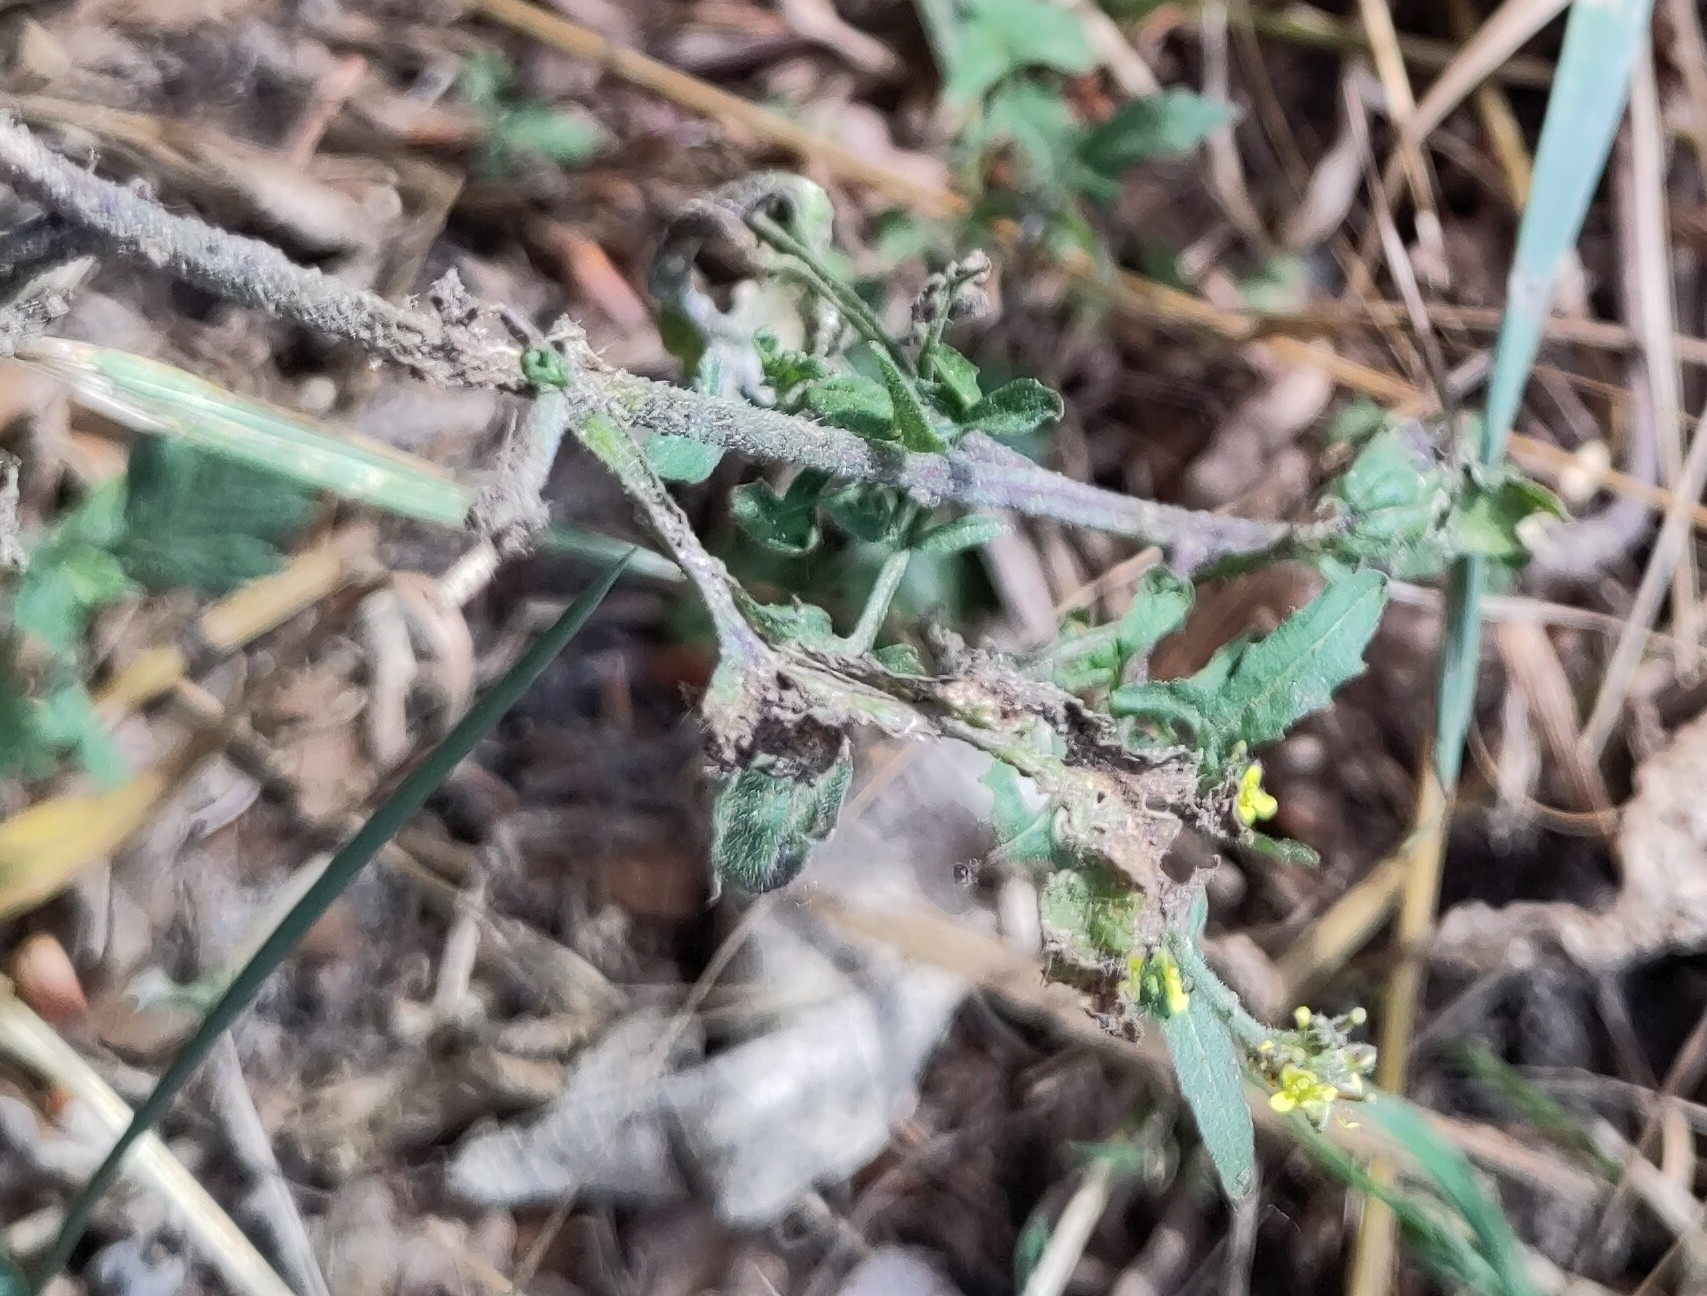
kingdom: Plantae
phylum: Tracheophyta
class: Magnoliopsida
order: Brassicales
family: Brassicaceae
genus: Sisymbrium
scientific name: Sisymbrium officinale
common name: Hedge mustard
